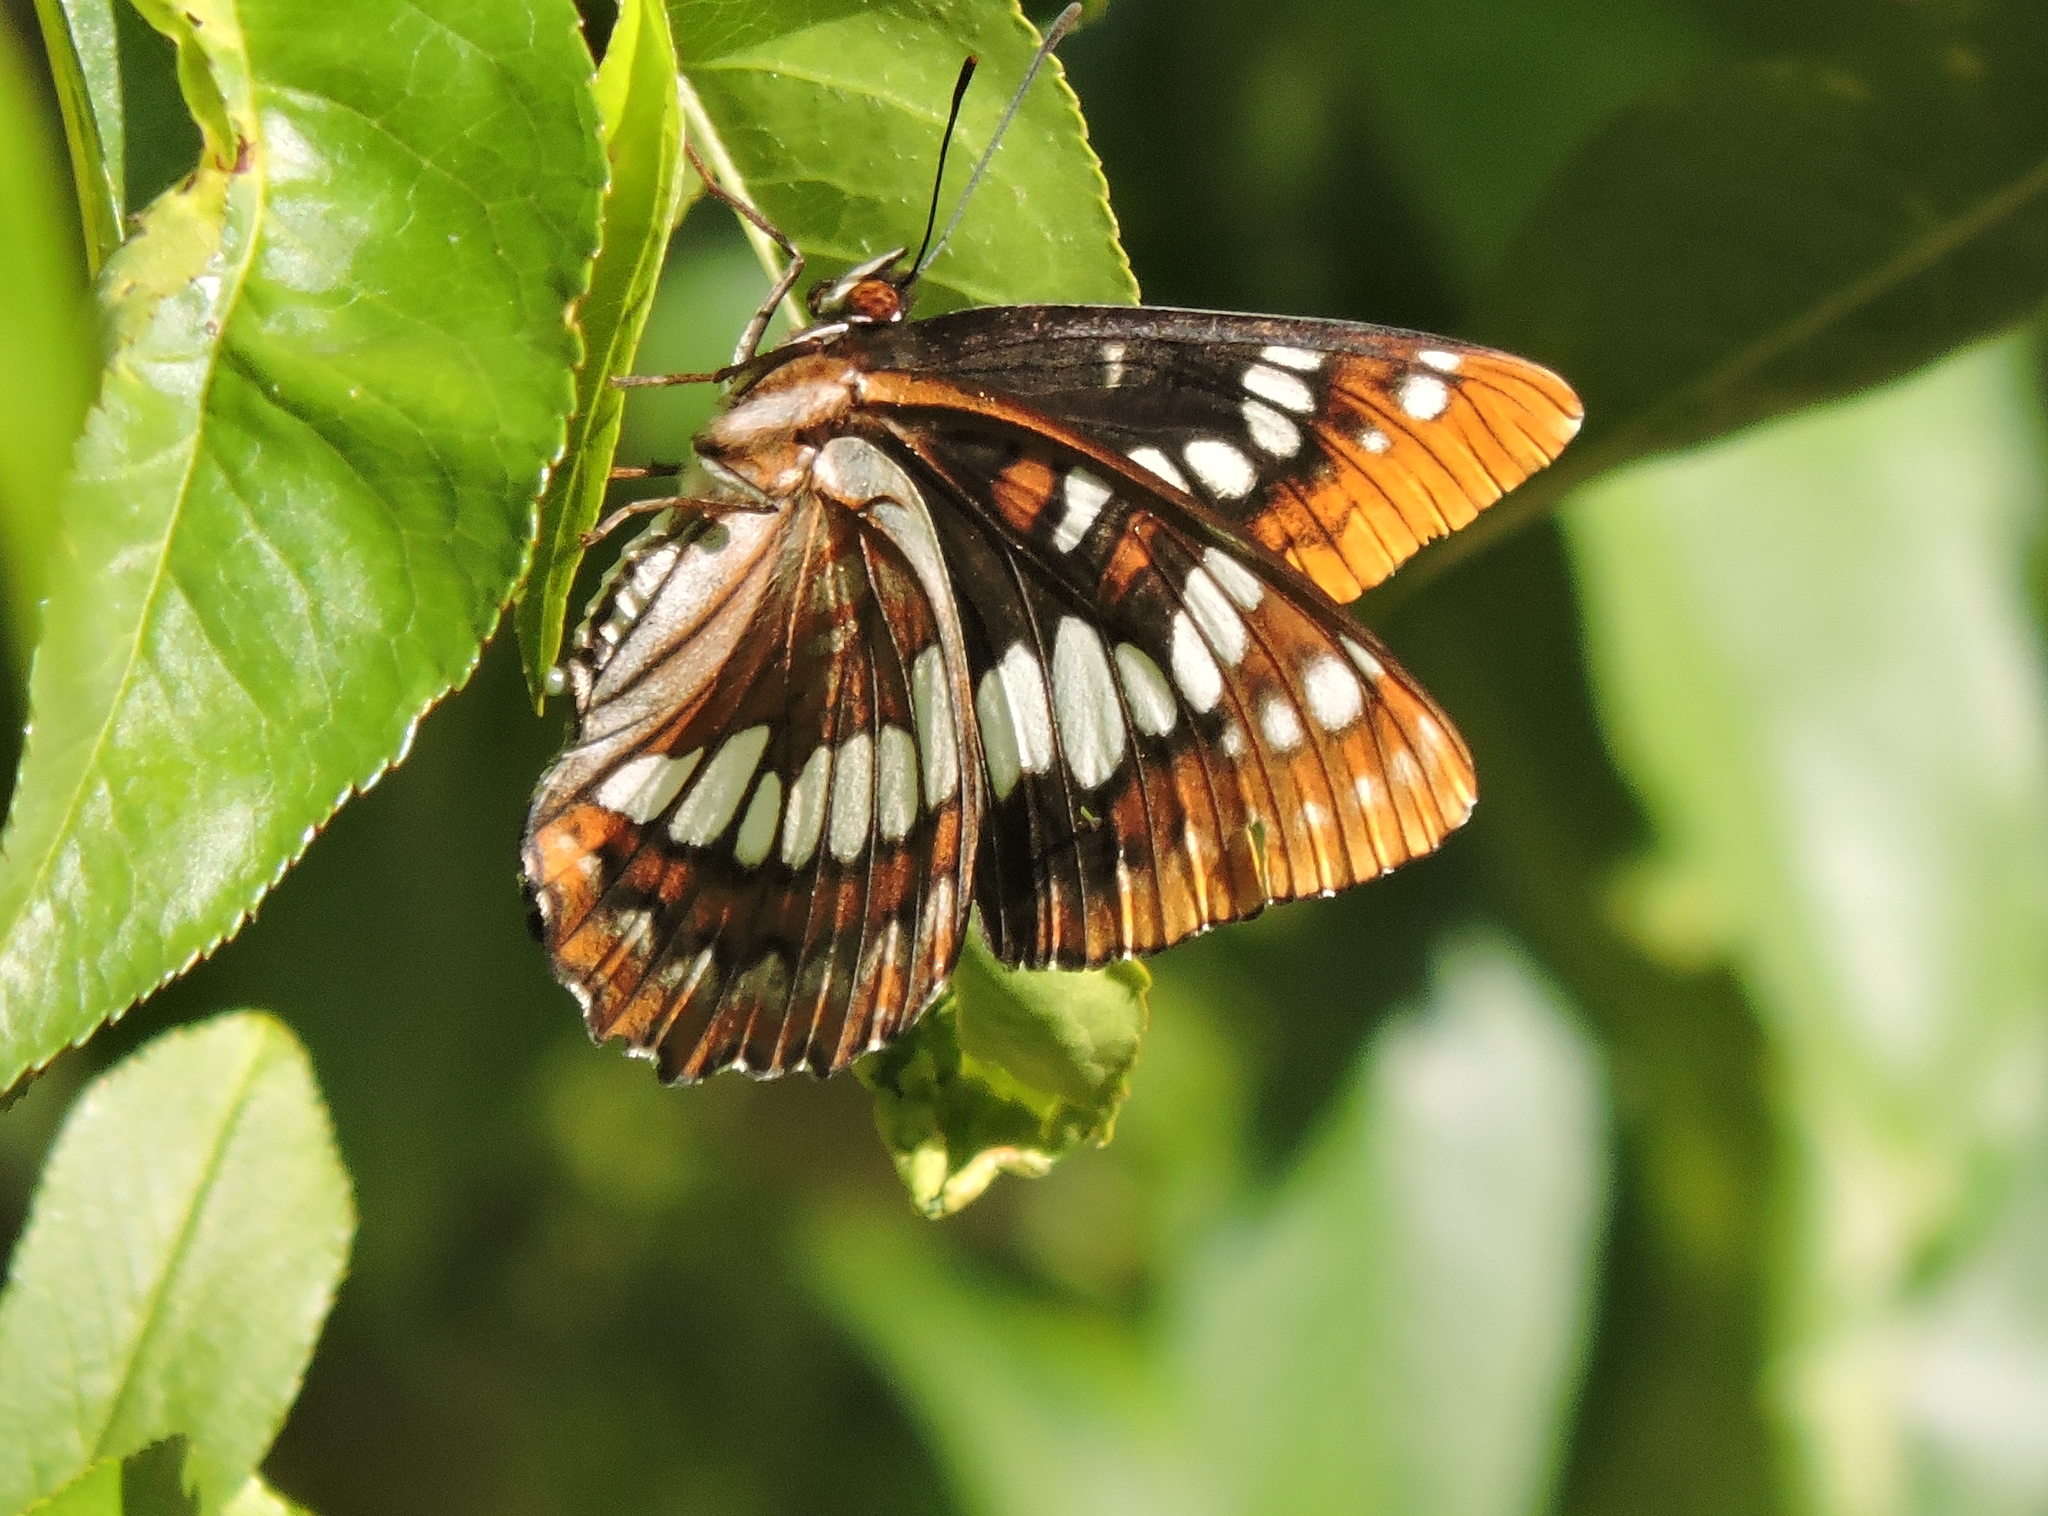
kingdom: Animalia
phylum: Arthropoda
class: Insecta
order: Lepidoptera
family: Nymphalidae
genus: Limenitis
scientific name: Limenitis lorquini
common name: Lorquin's admiral
